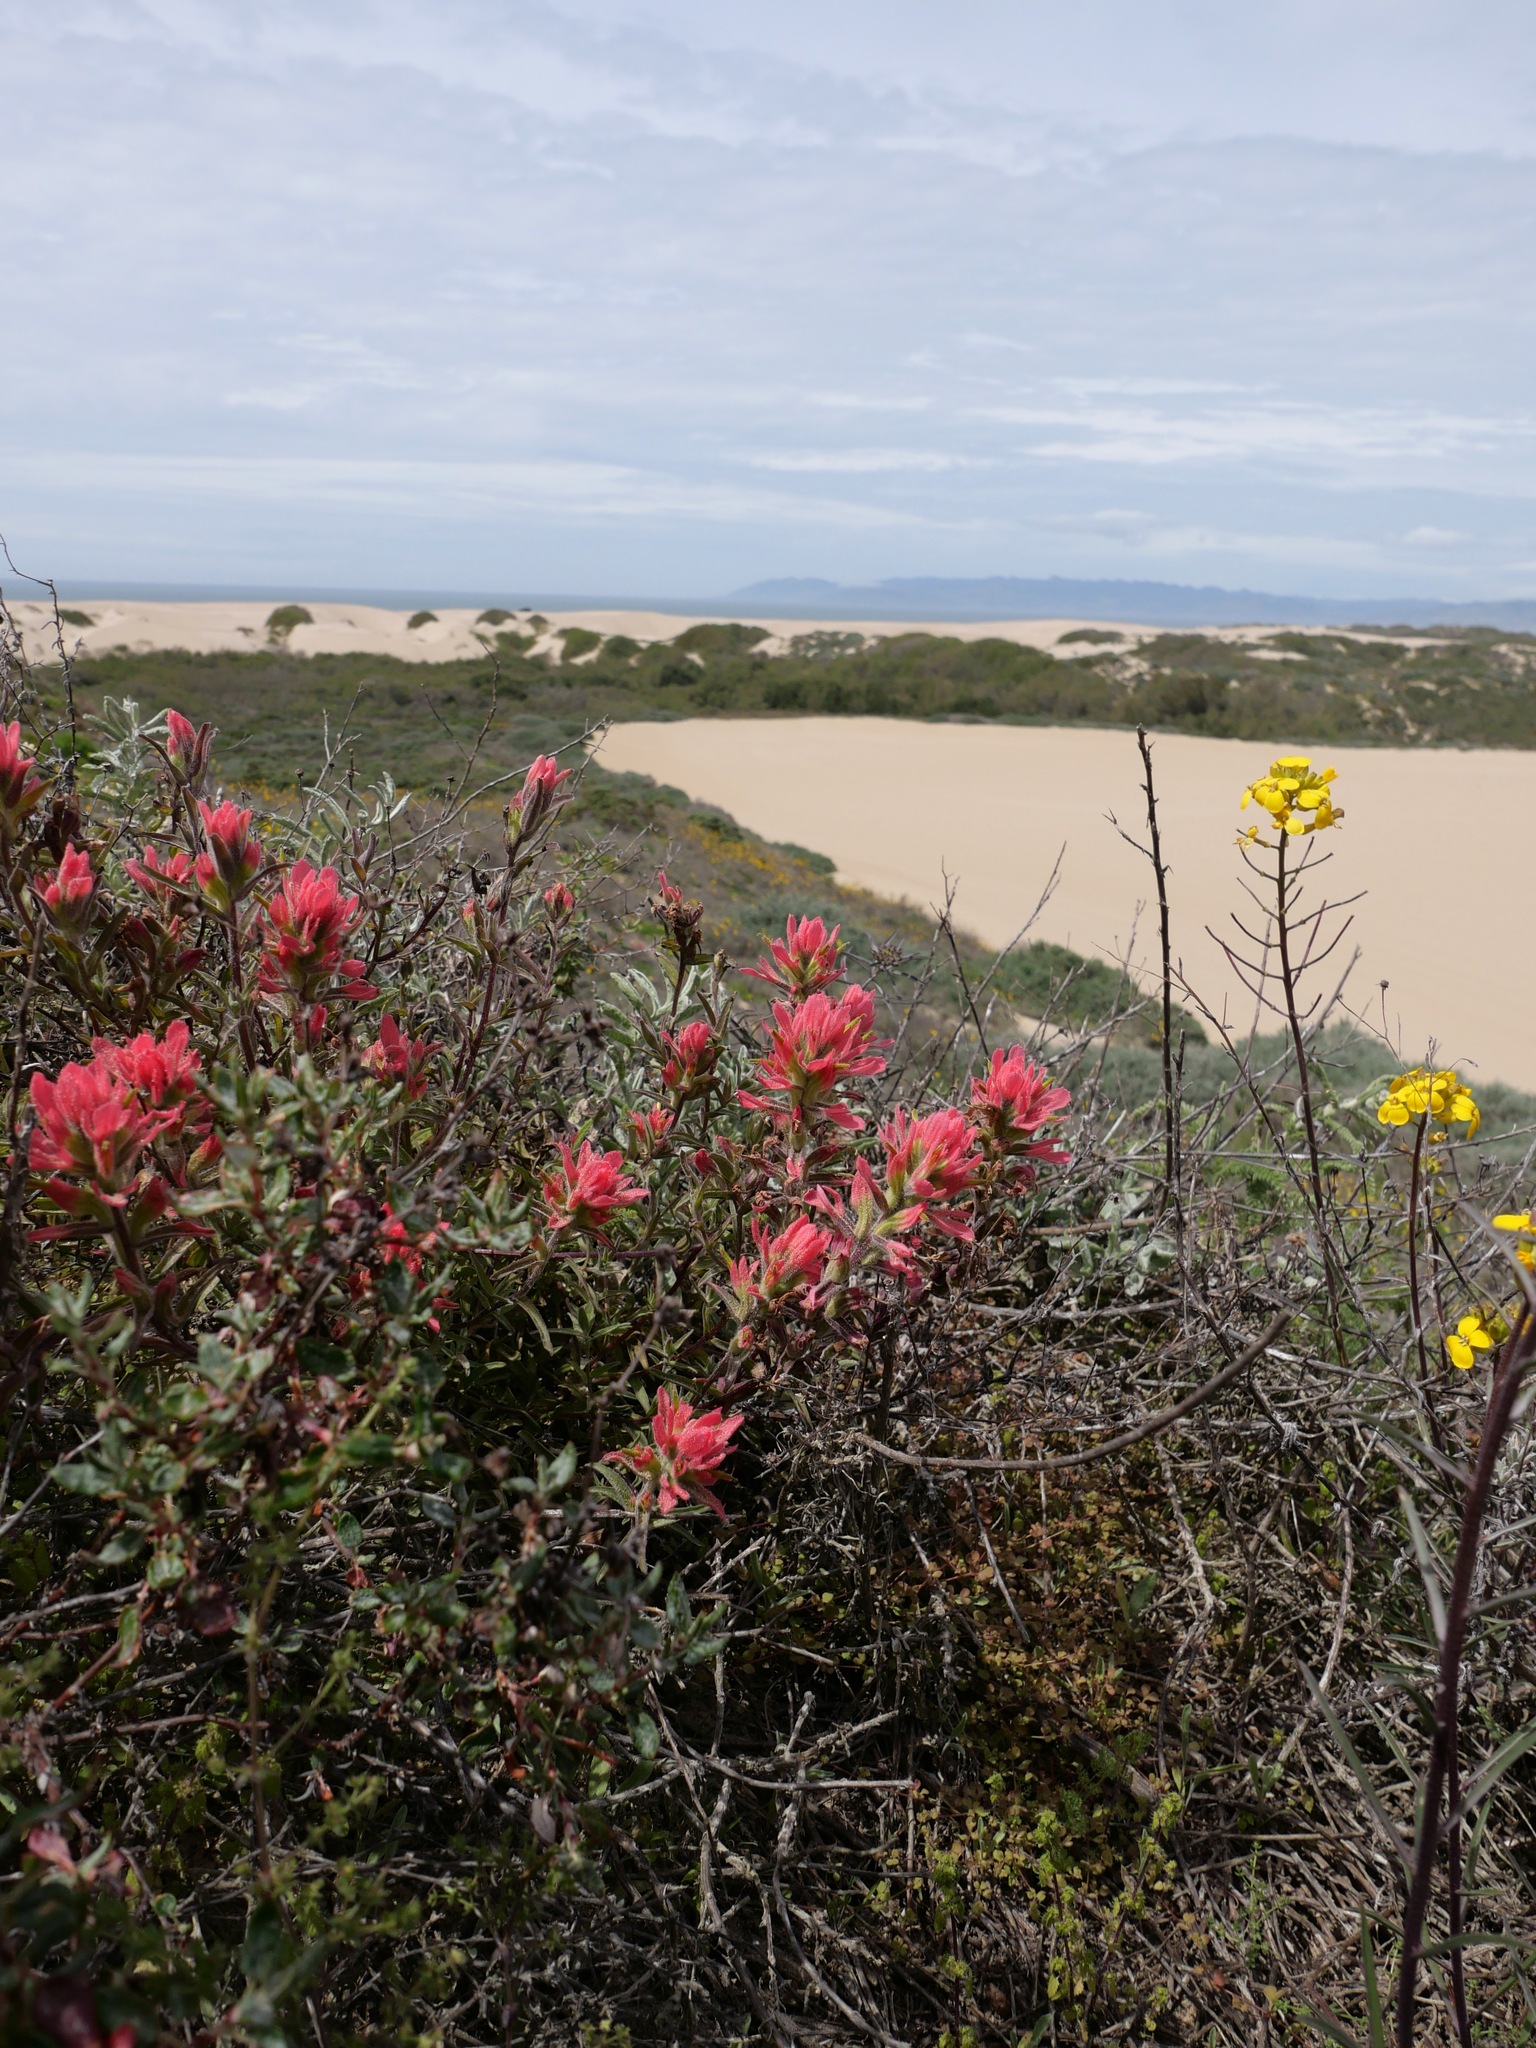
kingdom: Plantae
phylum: Tracheophyta
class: Magnoliopsida
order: Lamiales
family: Orobanchaceae
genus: Castilleja
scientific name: Castilleja affinis
